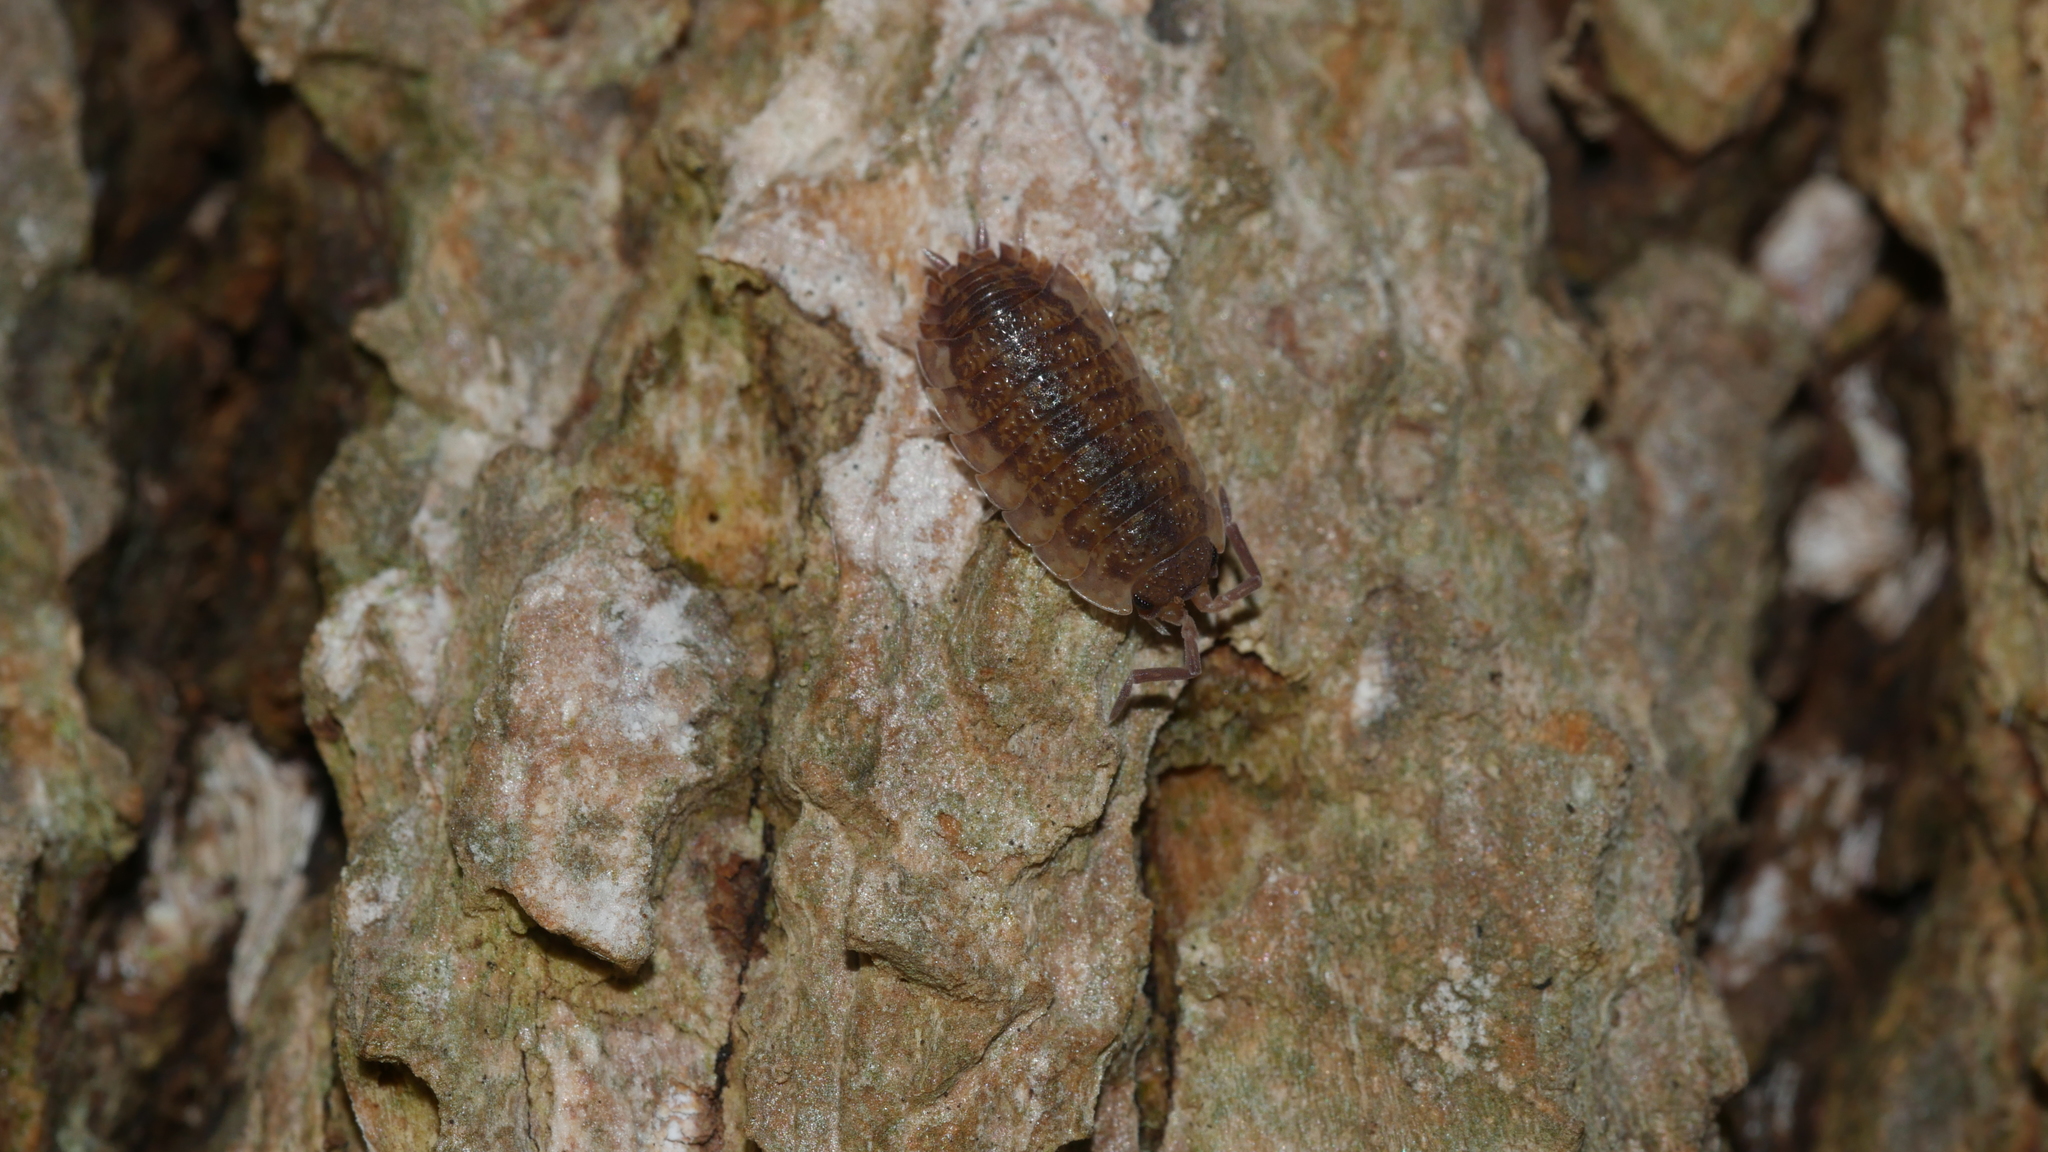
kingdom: Animalia
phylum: Arthropoda
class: Malacostraca
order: Isopoda
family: Porcellionidae
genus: Porcellio
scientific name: Porcellio scaber
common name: Common rough woodlouse
